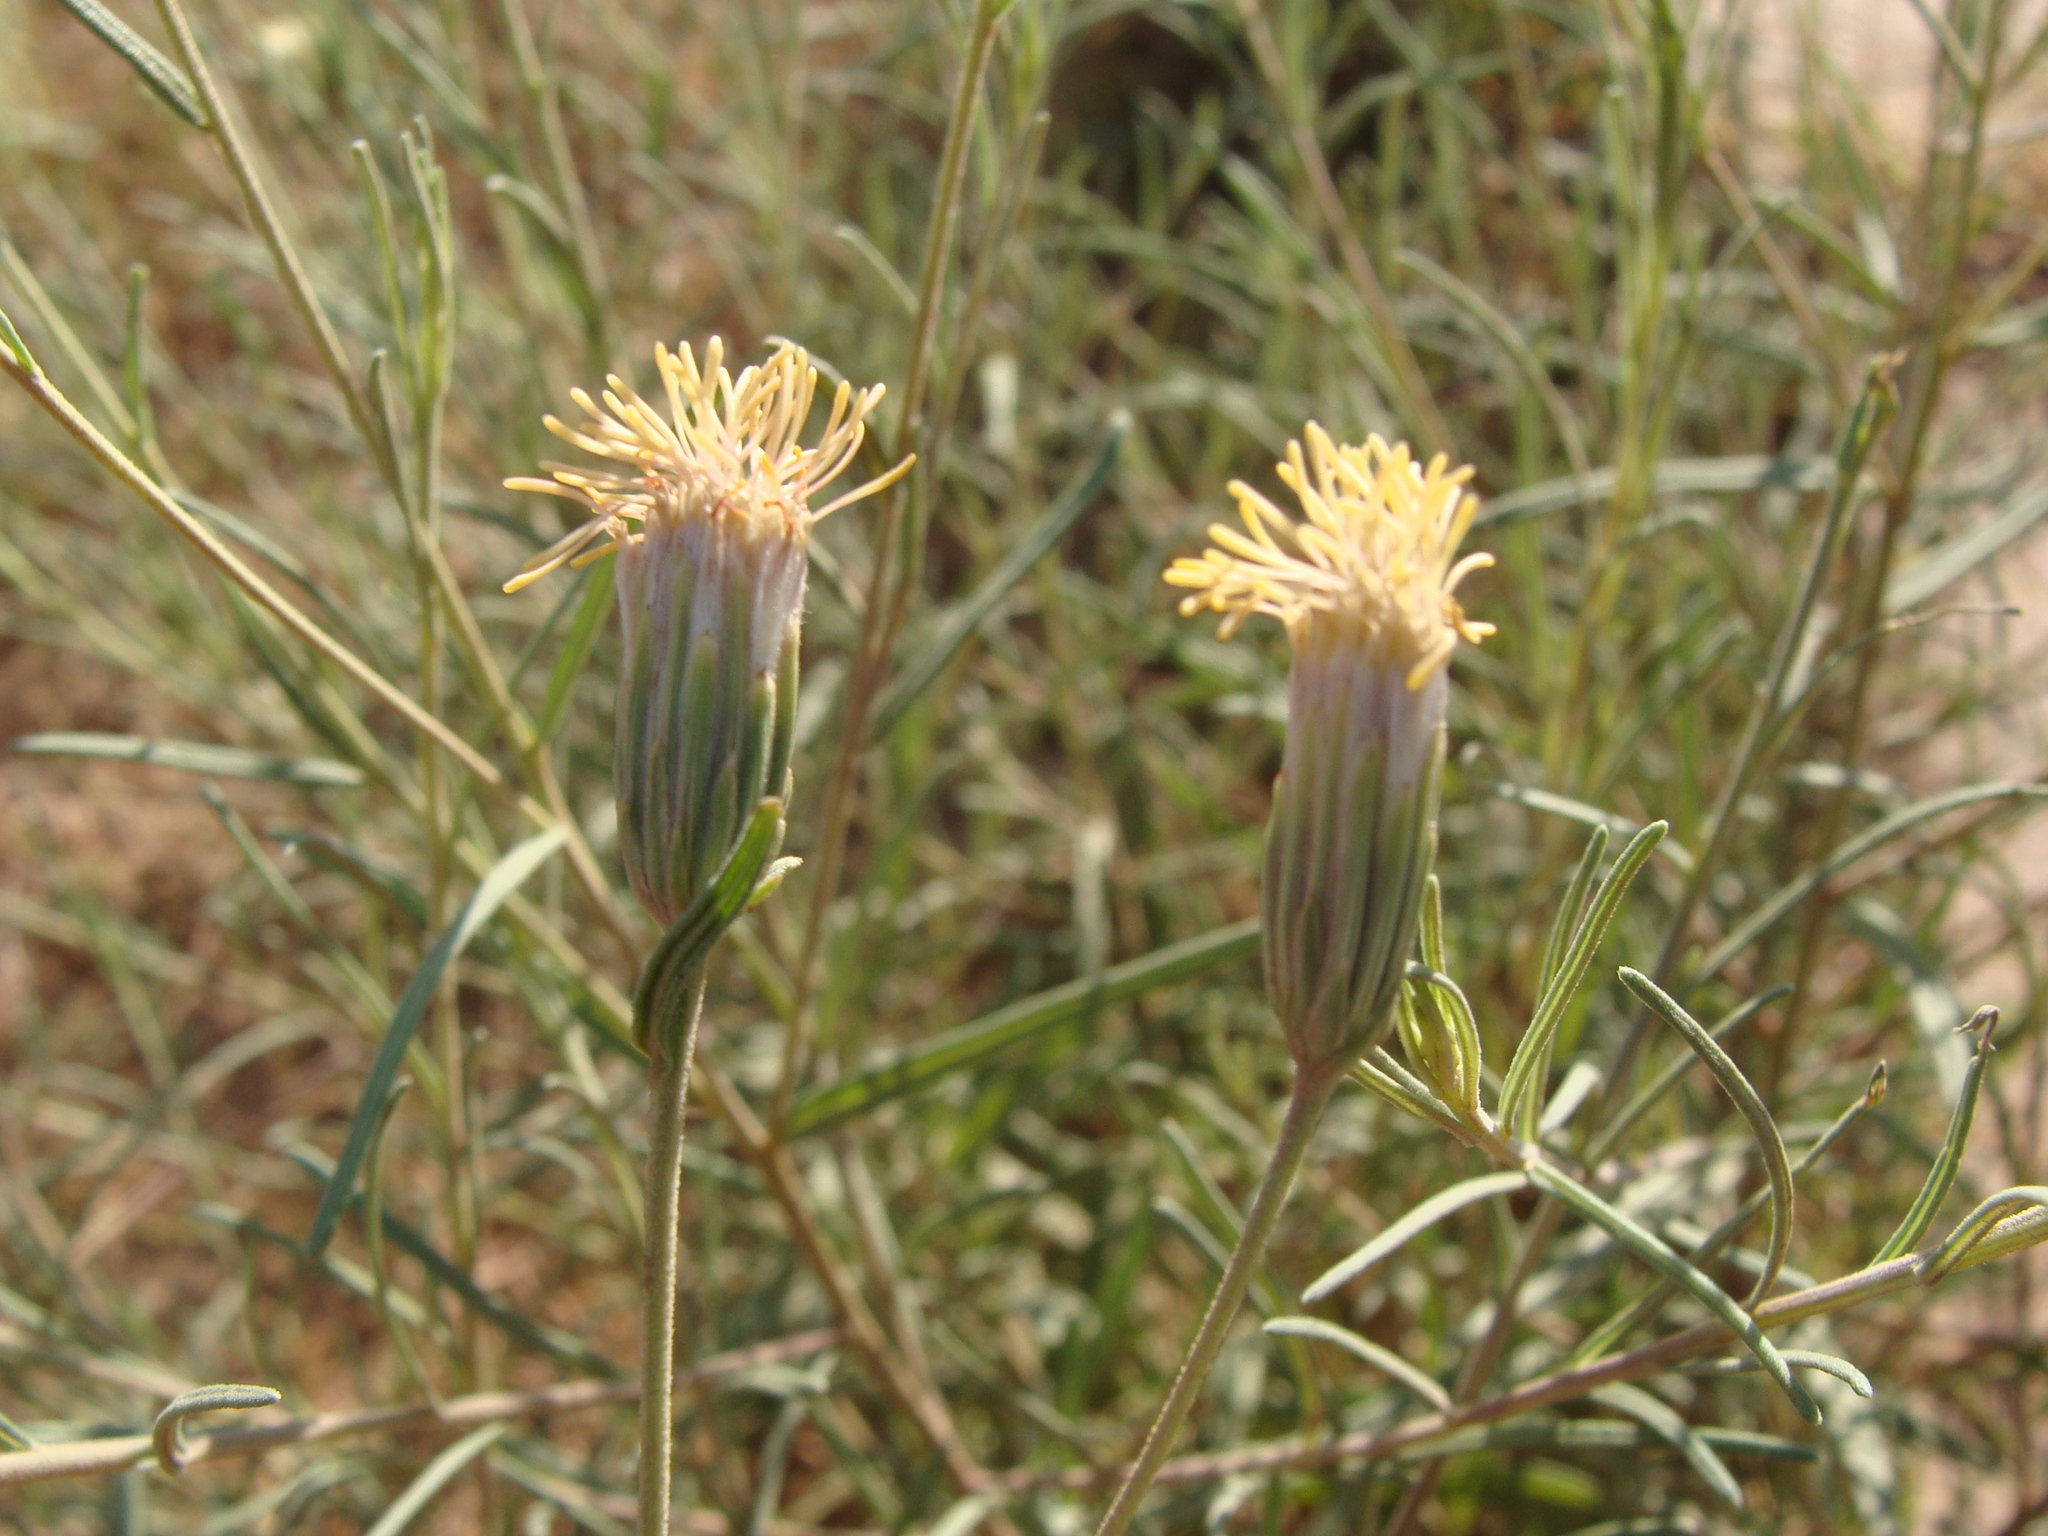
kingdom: Plantae
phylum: Tracheophyta
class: Magnoliopsida
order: Asterales
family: Asteraceae
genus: Brickellia
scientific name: Brickellia eupatorioides
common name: False boneset
